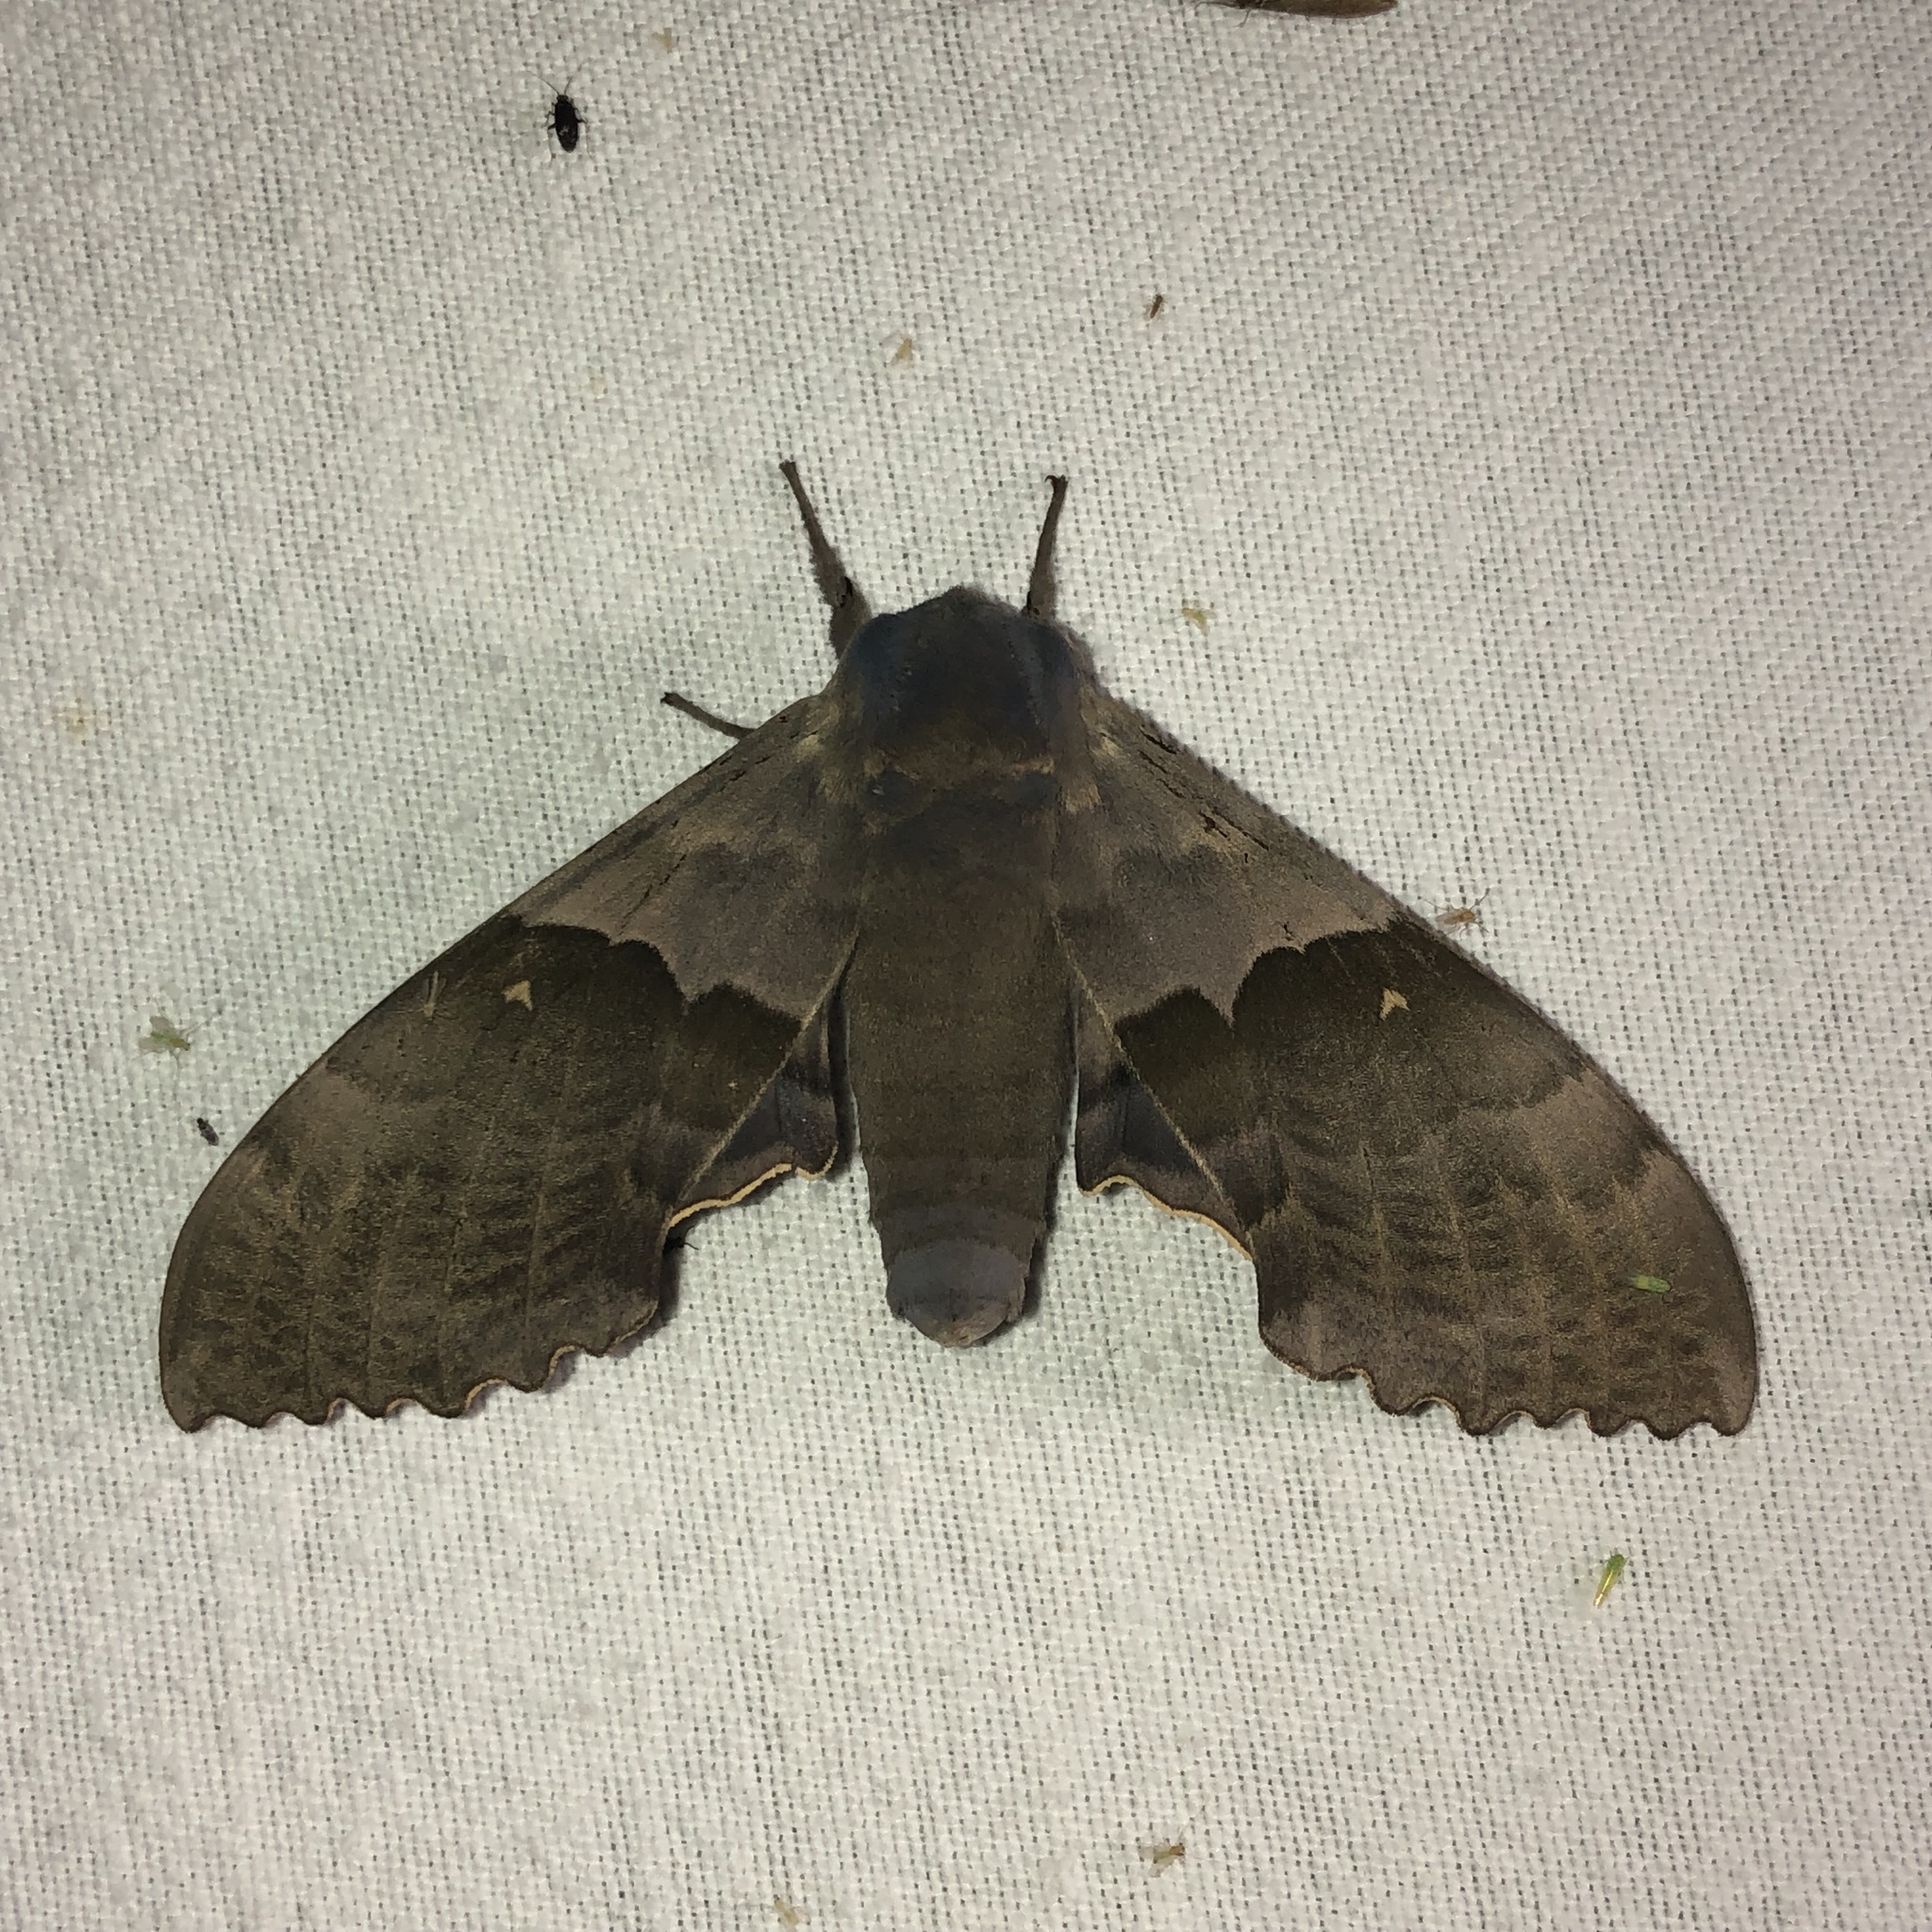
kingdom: Animalia
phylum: Arthropoda
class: Insecta
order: Lepidoptera
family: Sphingidae
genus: Pachysphinx
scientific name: Pachysphinx modesta
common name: Big poplar sphinx
